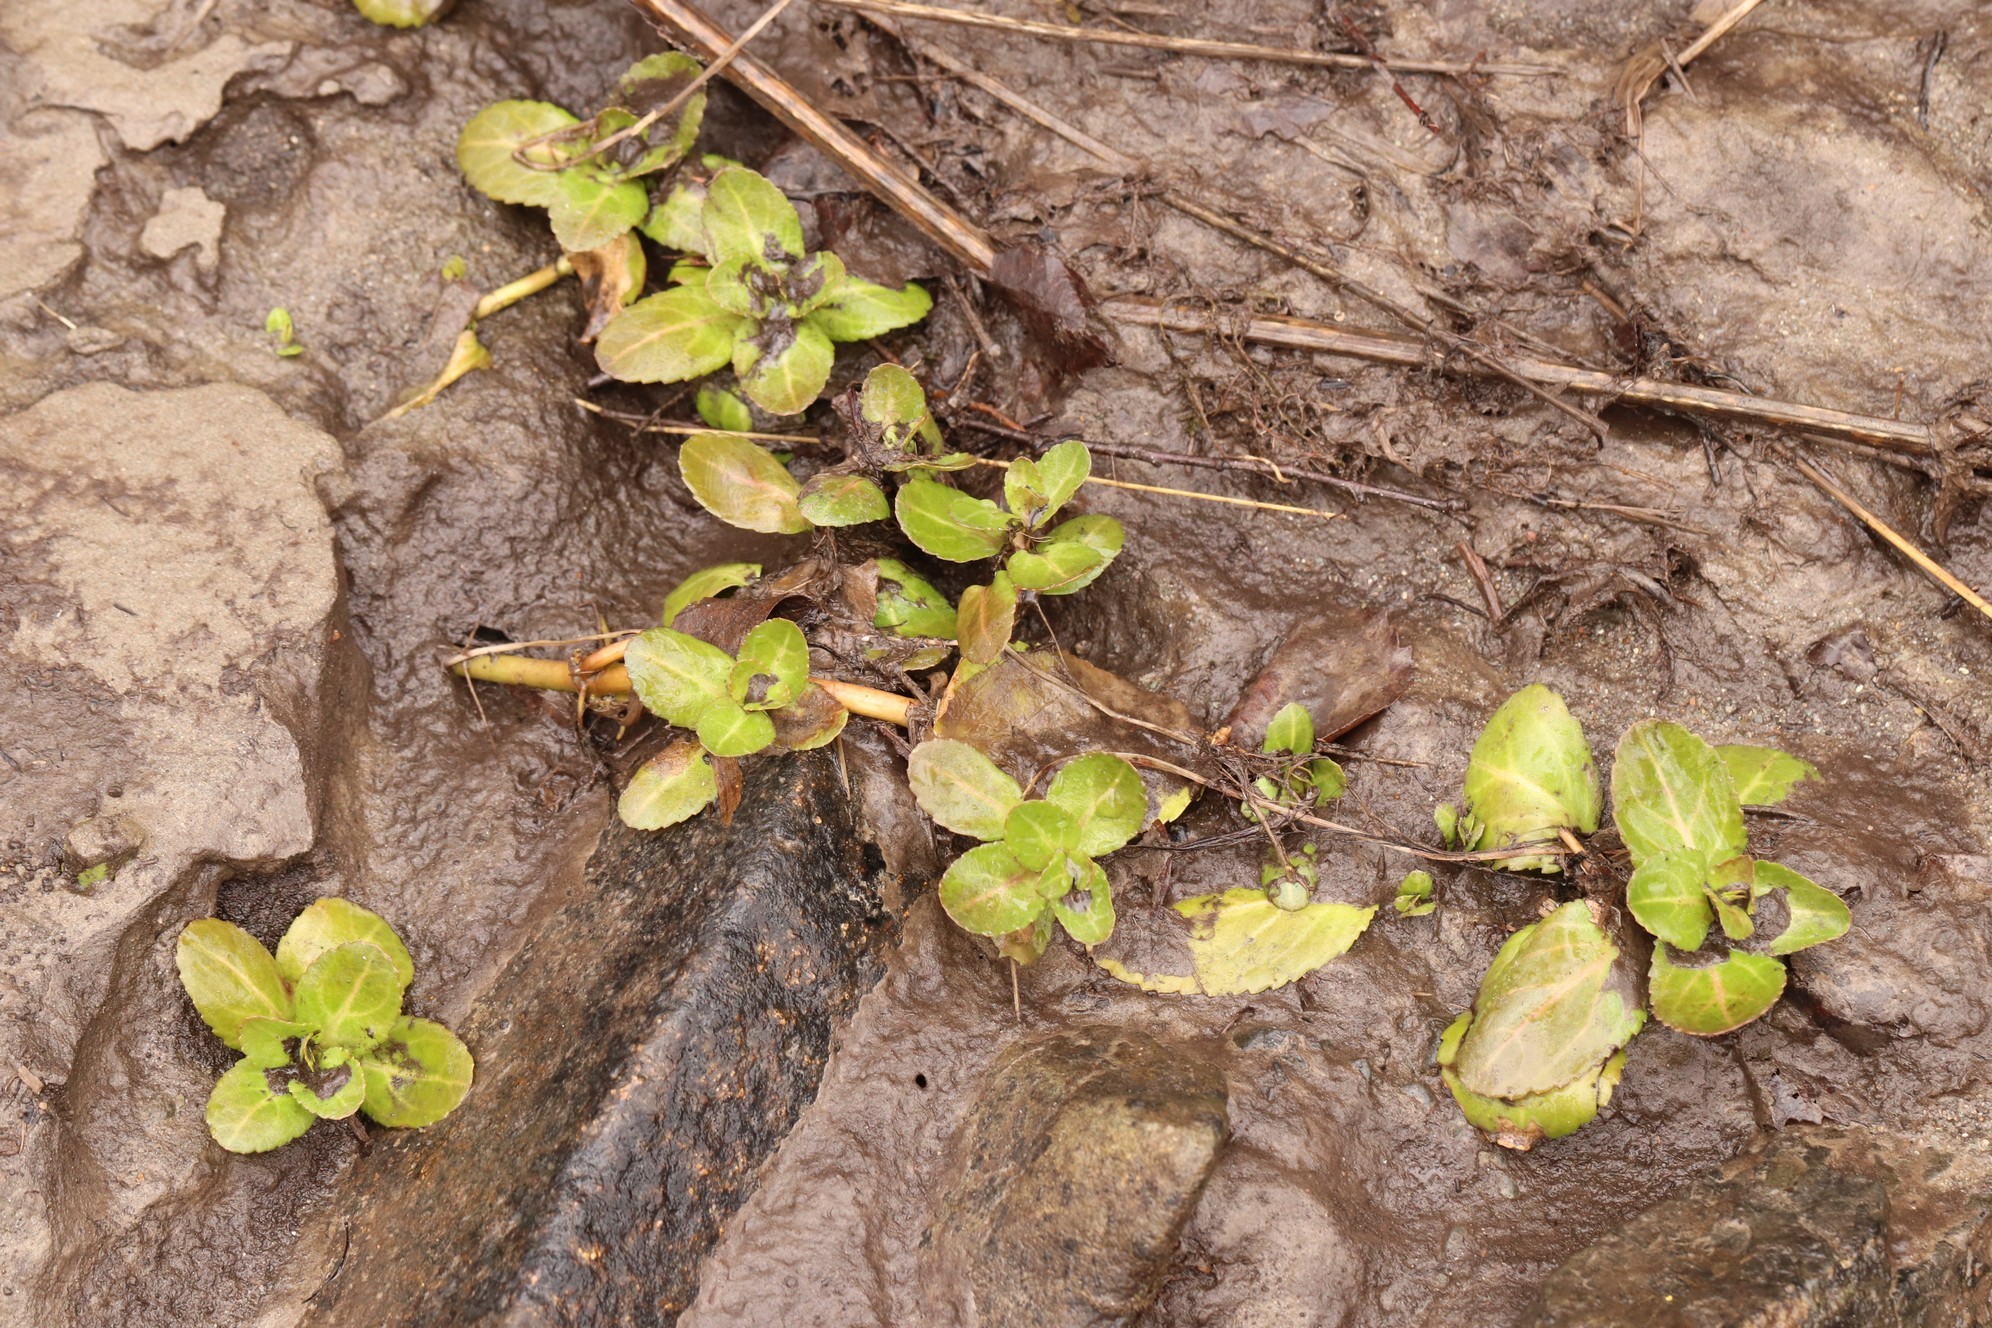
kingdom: Plantae
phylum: Tracheophyta
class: Magnoliopsida
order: Lamiales
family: Plantaginaceae
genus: Veronica
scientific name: Veronica beccabunga
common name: Brooklime
